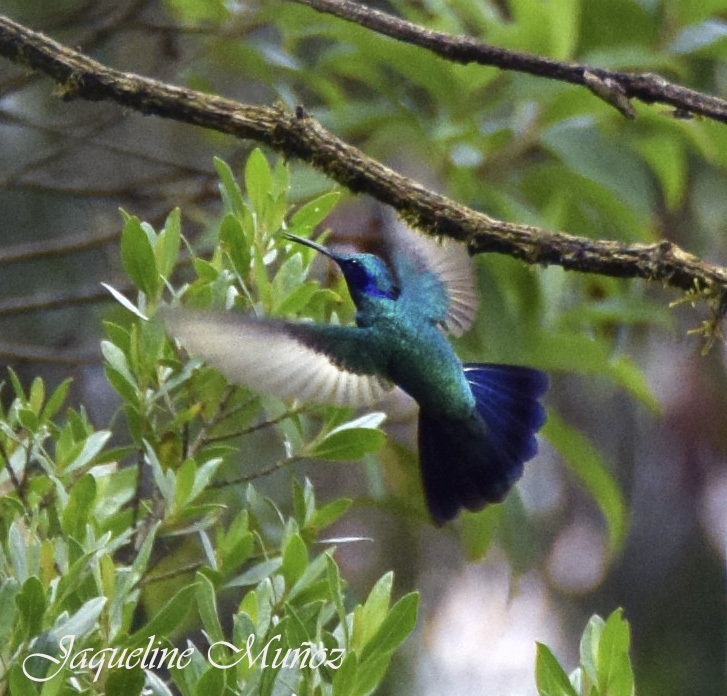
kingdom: Animalia
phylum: Chordata
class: Aves
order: Apodiformes
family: Trochilidae
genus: Colibri
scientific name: Colibri cyanotus
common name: Lesser violetear
